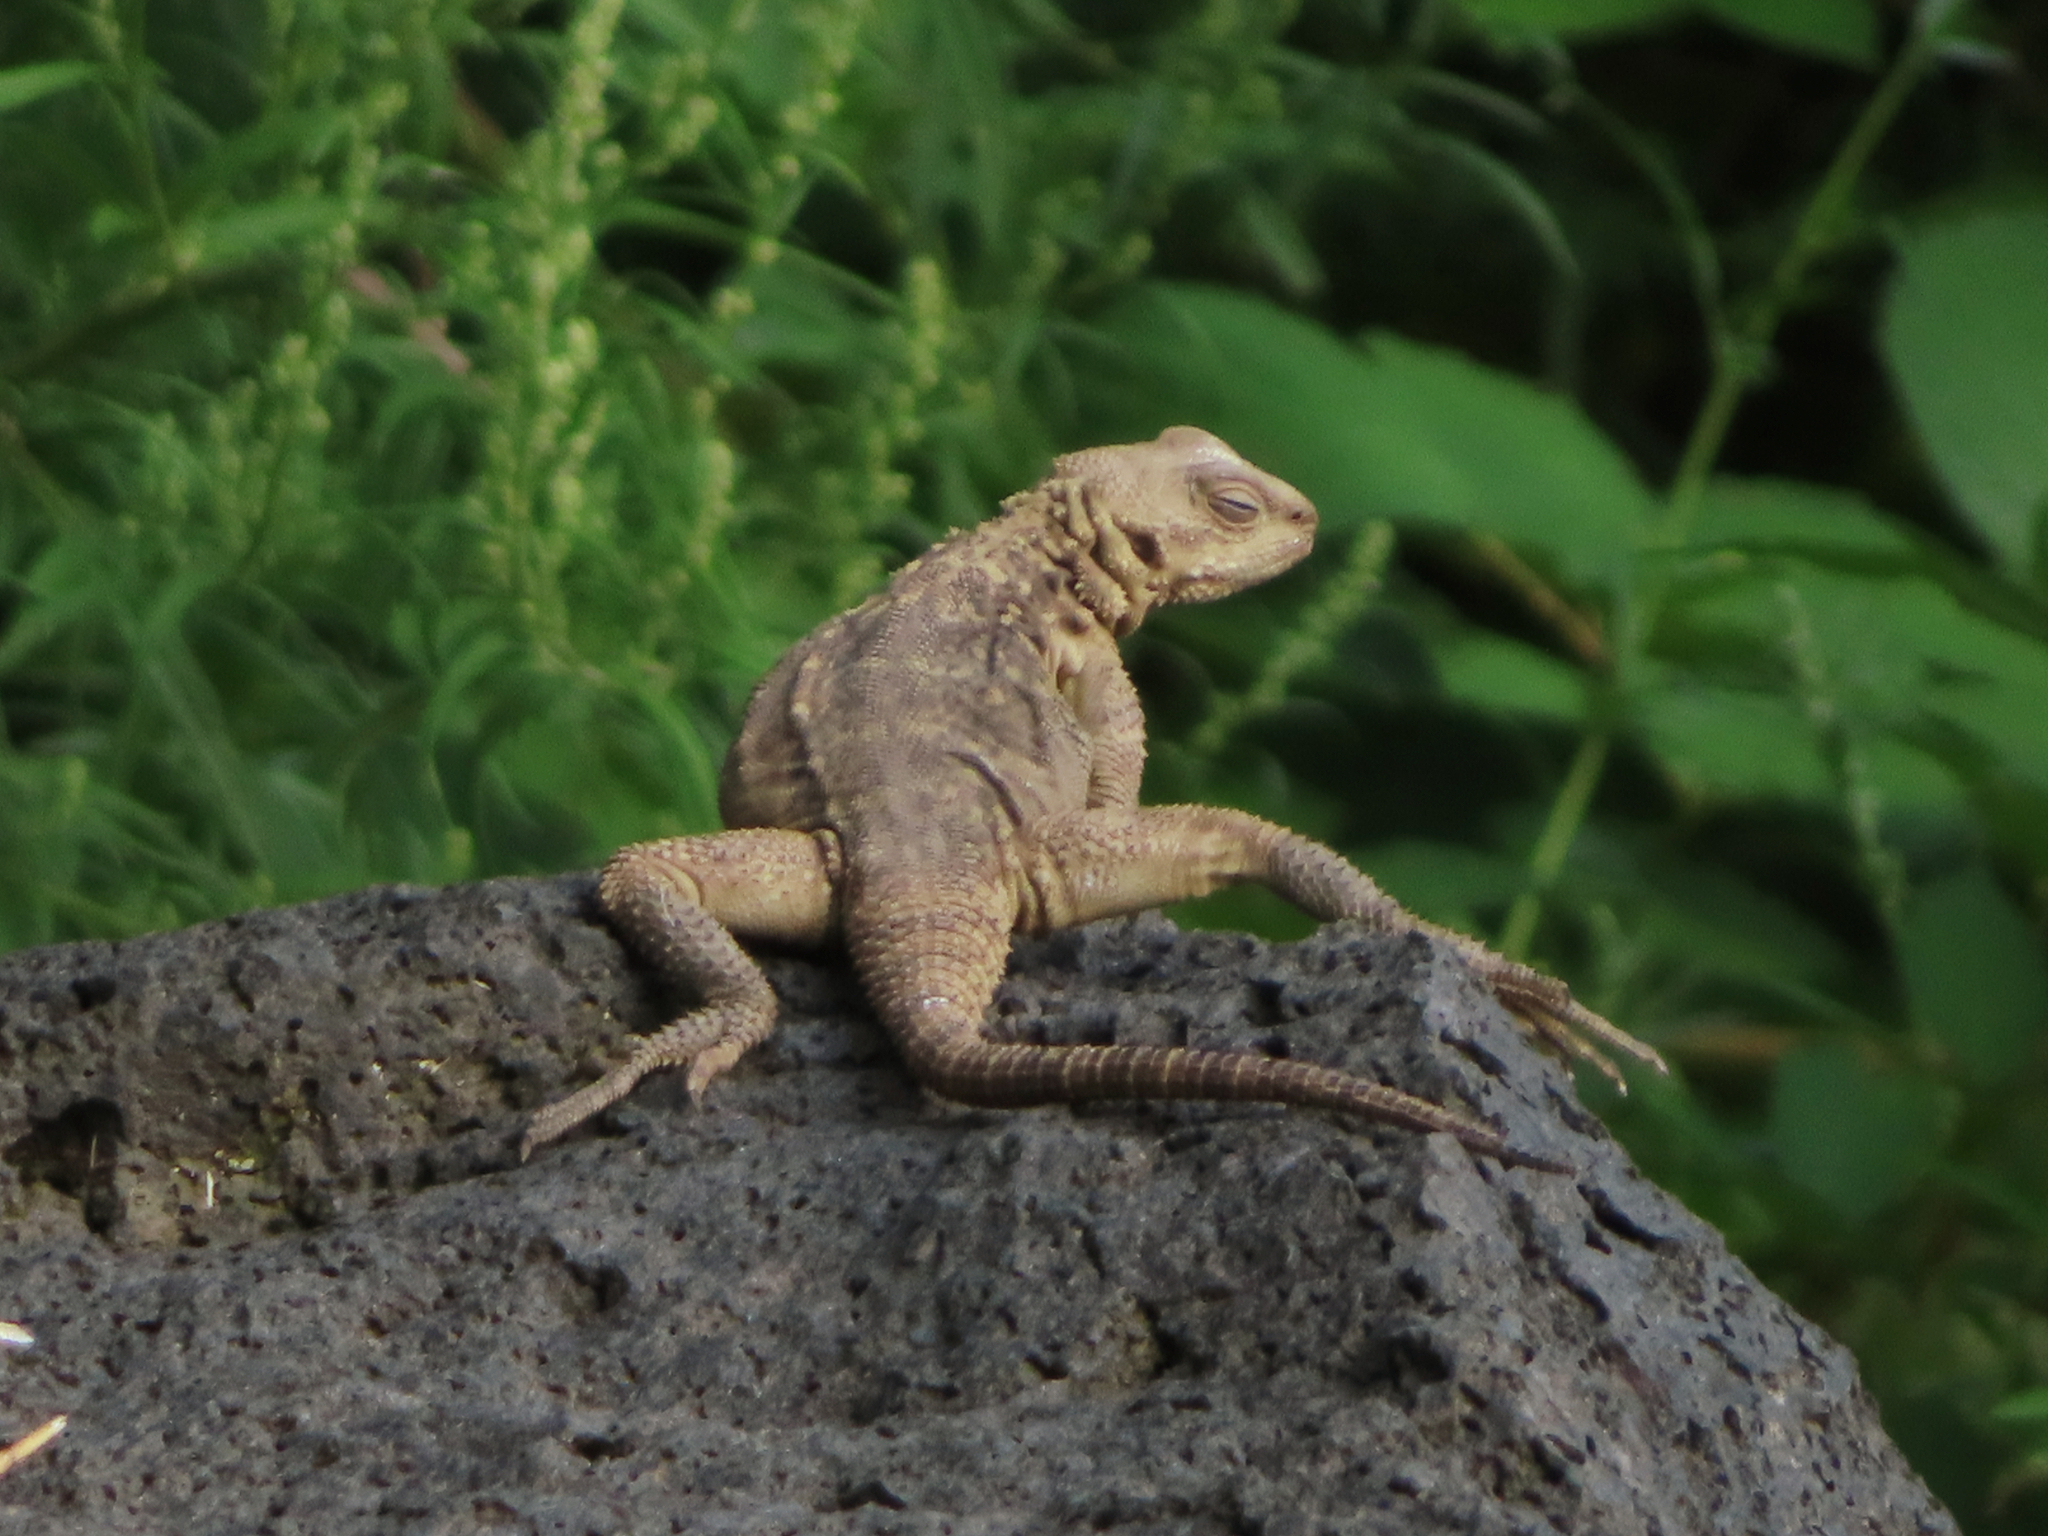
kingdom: Animalia
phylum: Chordata
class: Squamata
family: Agamidae
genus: Paralaudakia
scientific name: Paralaudakia caucasia
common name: Caucasian agama
